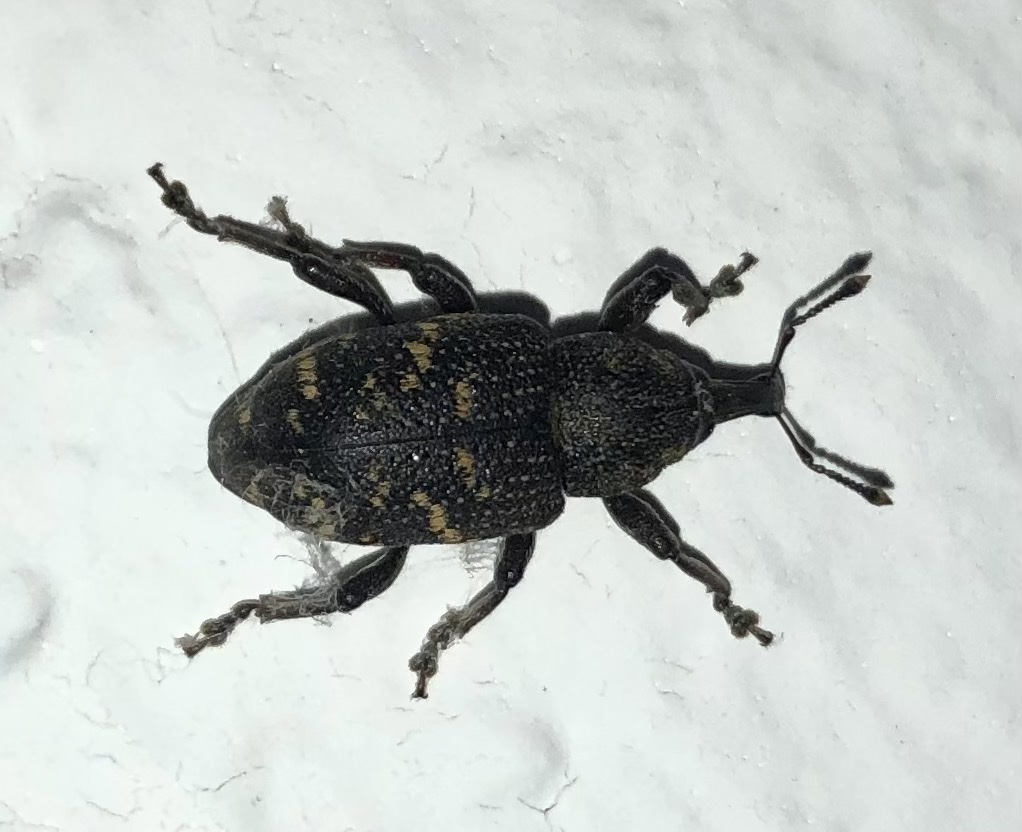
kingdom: Animalia
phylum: Arthropoda
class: Insecta
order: Coleoptera
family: Curculionidae
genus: Hylobius
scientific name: Hylobius abietis
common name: Large pine weevil
